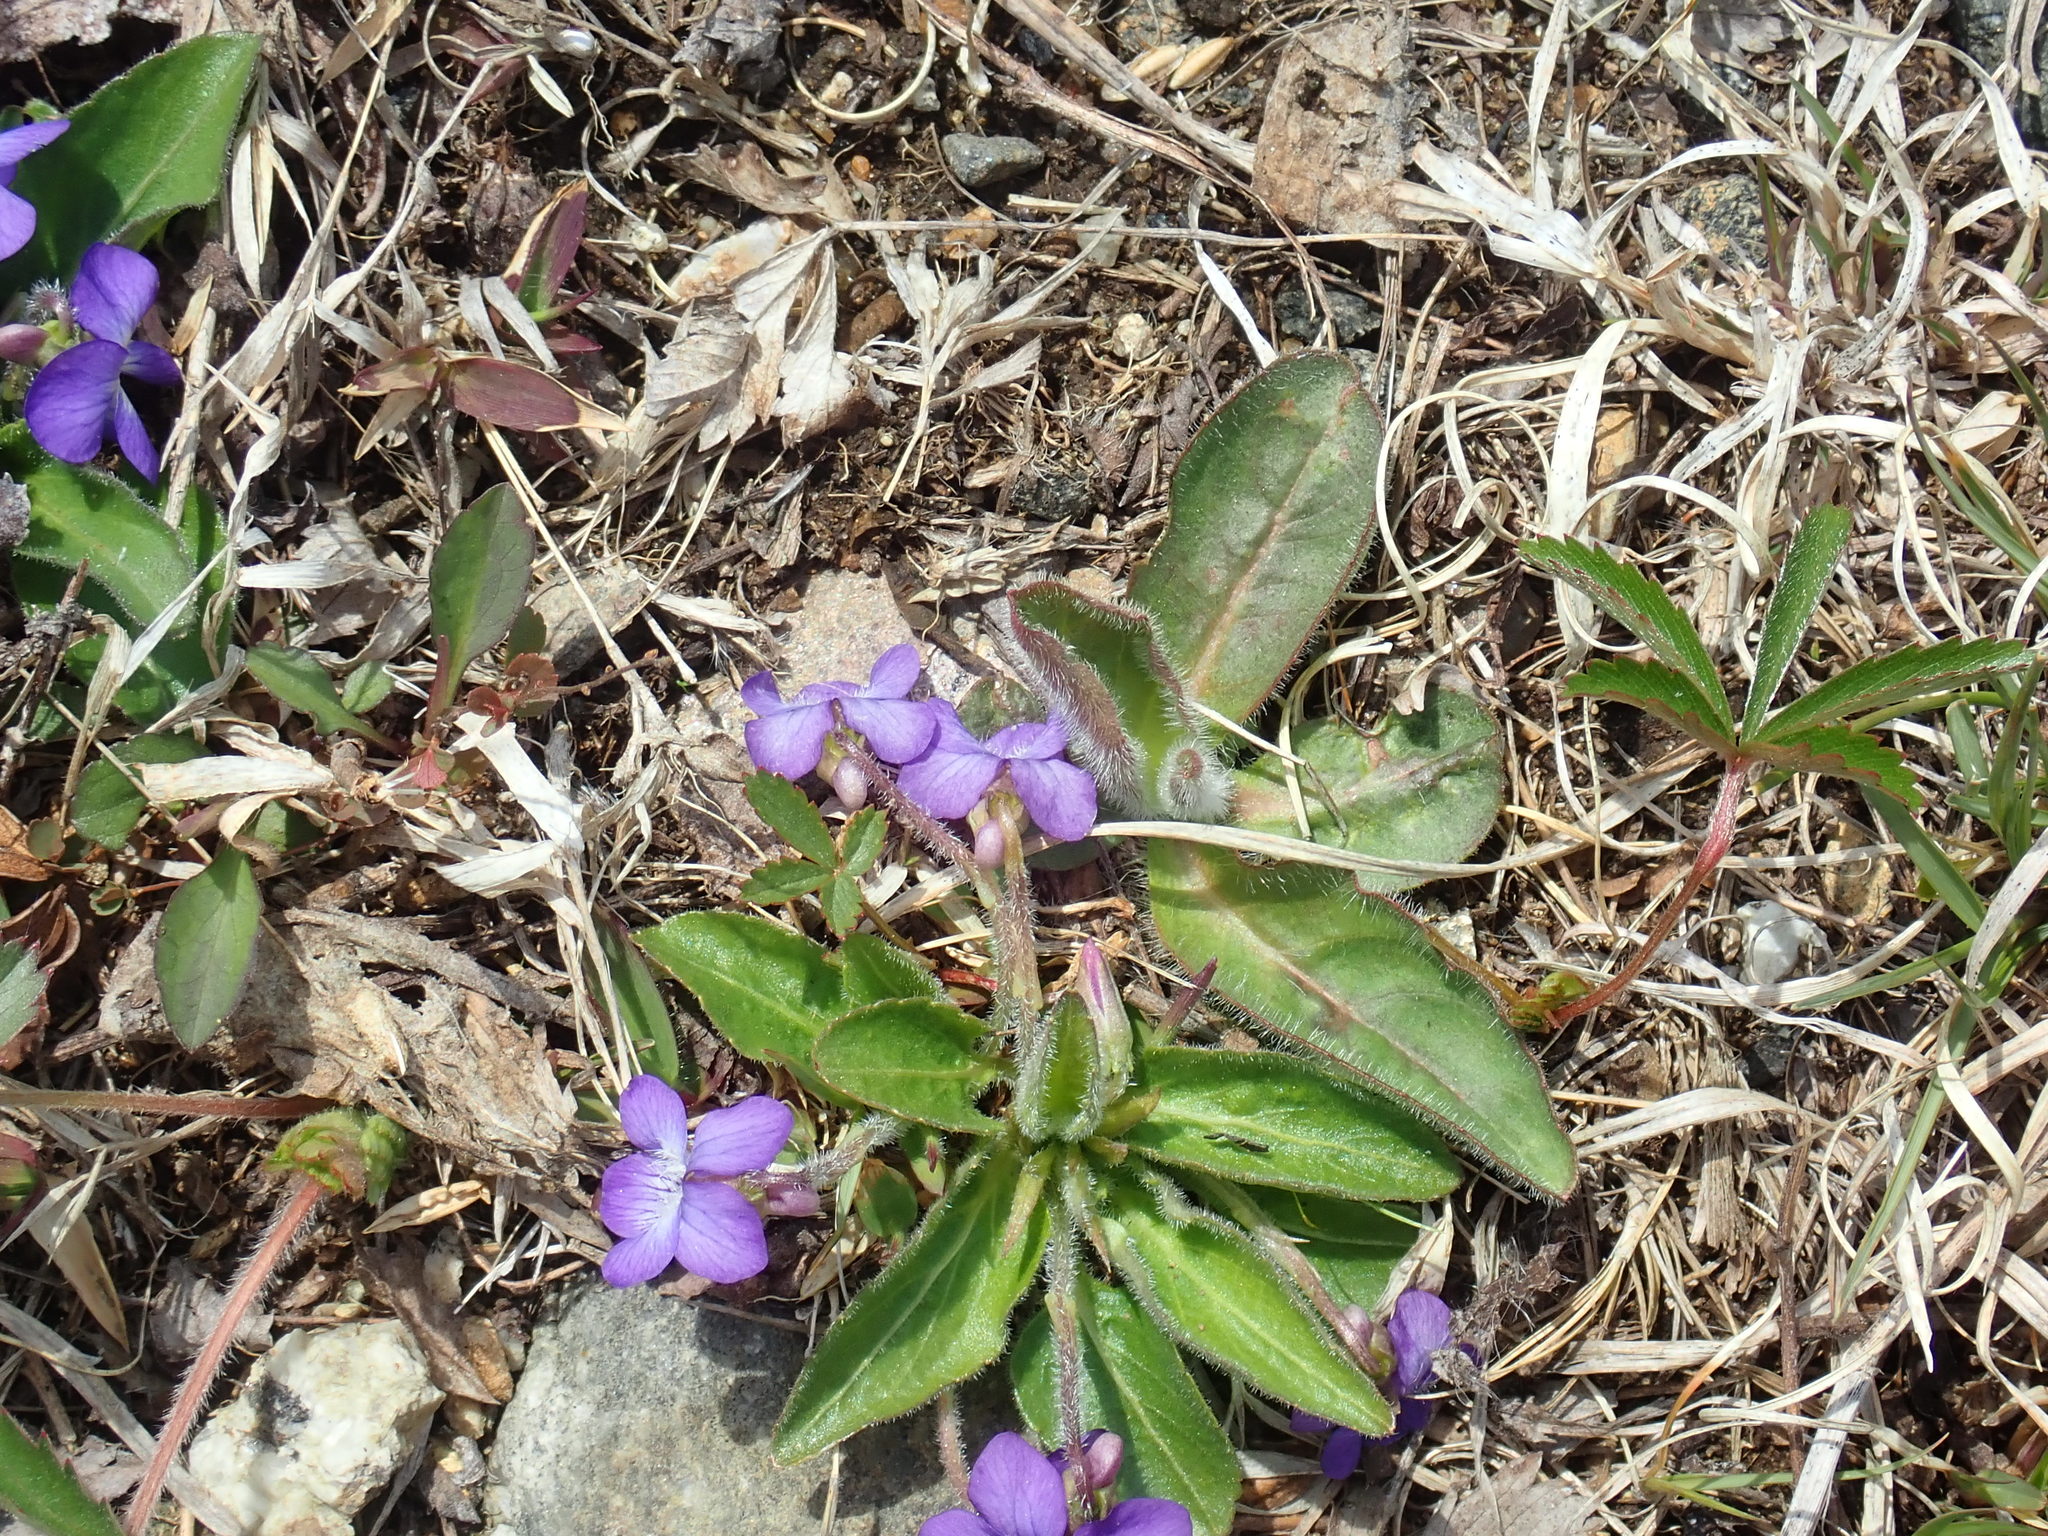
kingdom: Plantae
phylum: Tracheophyta
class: Magnoliopsida
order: Malpighiales
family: Violaceae
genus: Viola
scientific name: Viola sagittata
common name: Arrowhead violet
